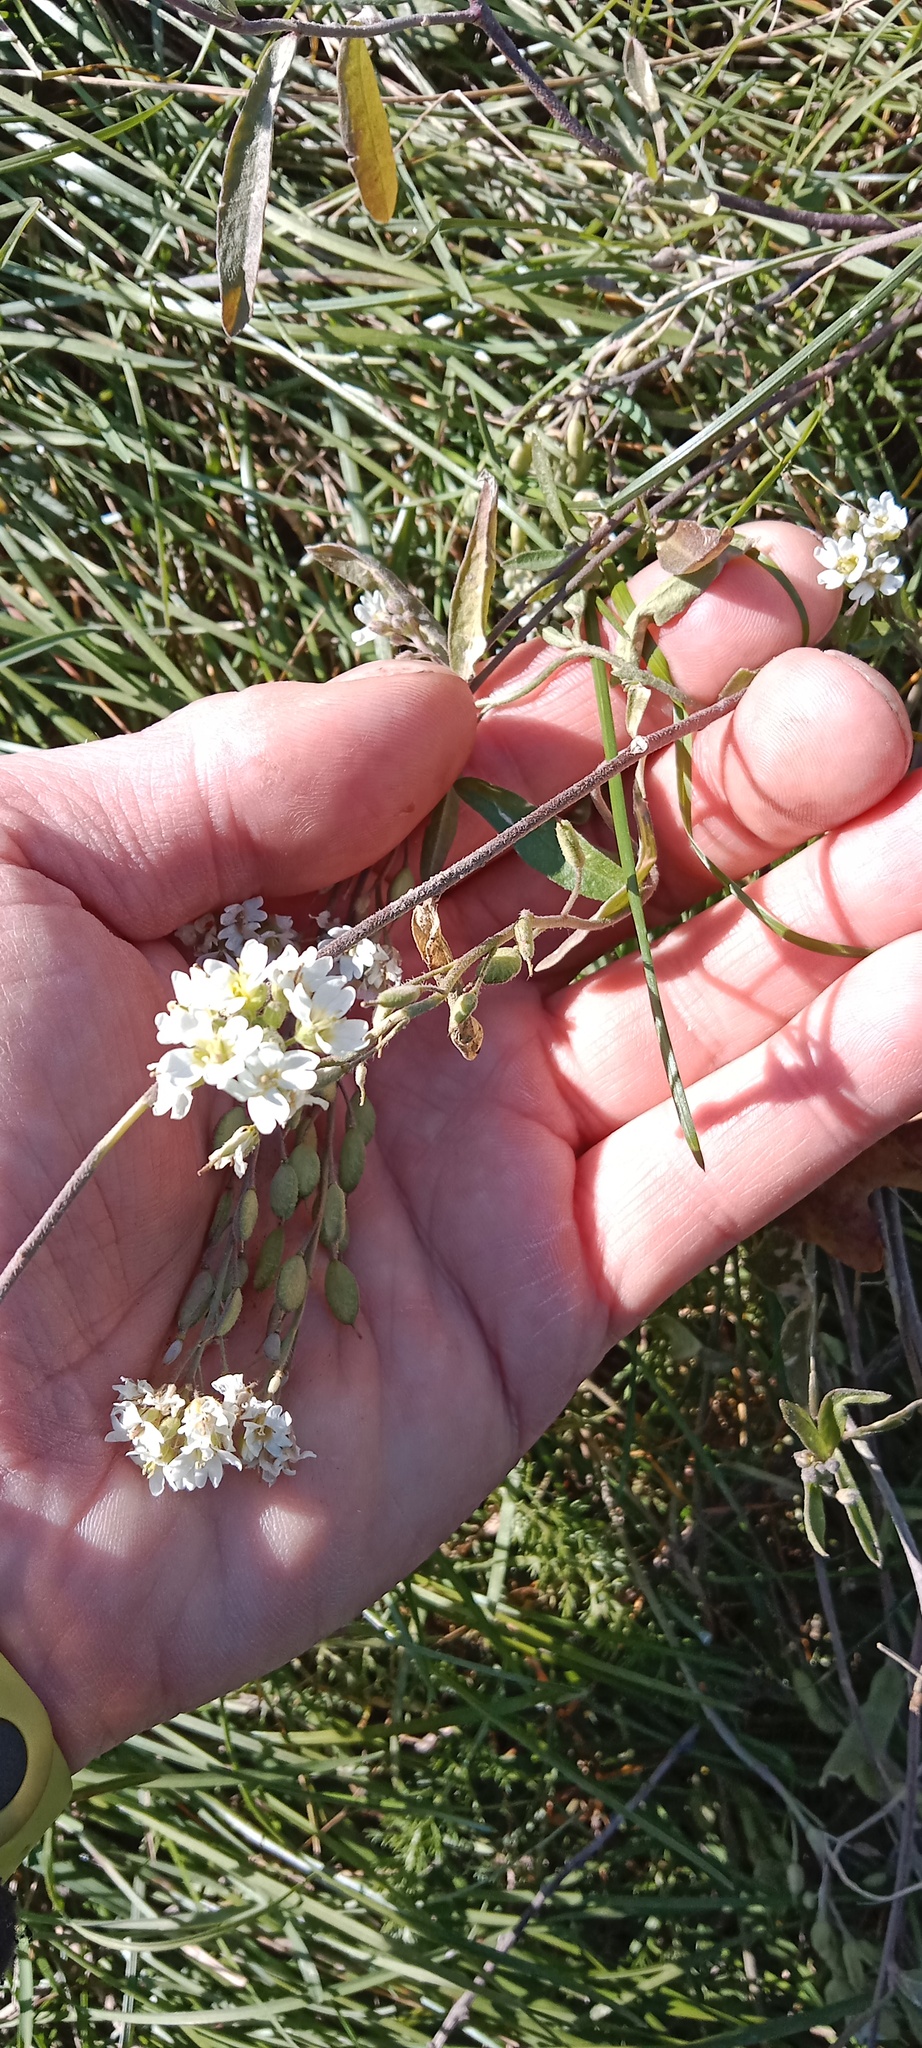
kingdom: Plantae
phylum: Tracheophyta
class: Magnoliopsida
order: Brassicales
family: Brassicaceae
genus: Berteroa
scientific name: Berteroa incana
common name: Hoary alison
